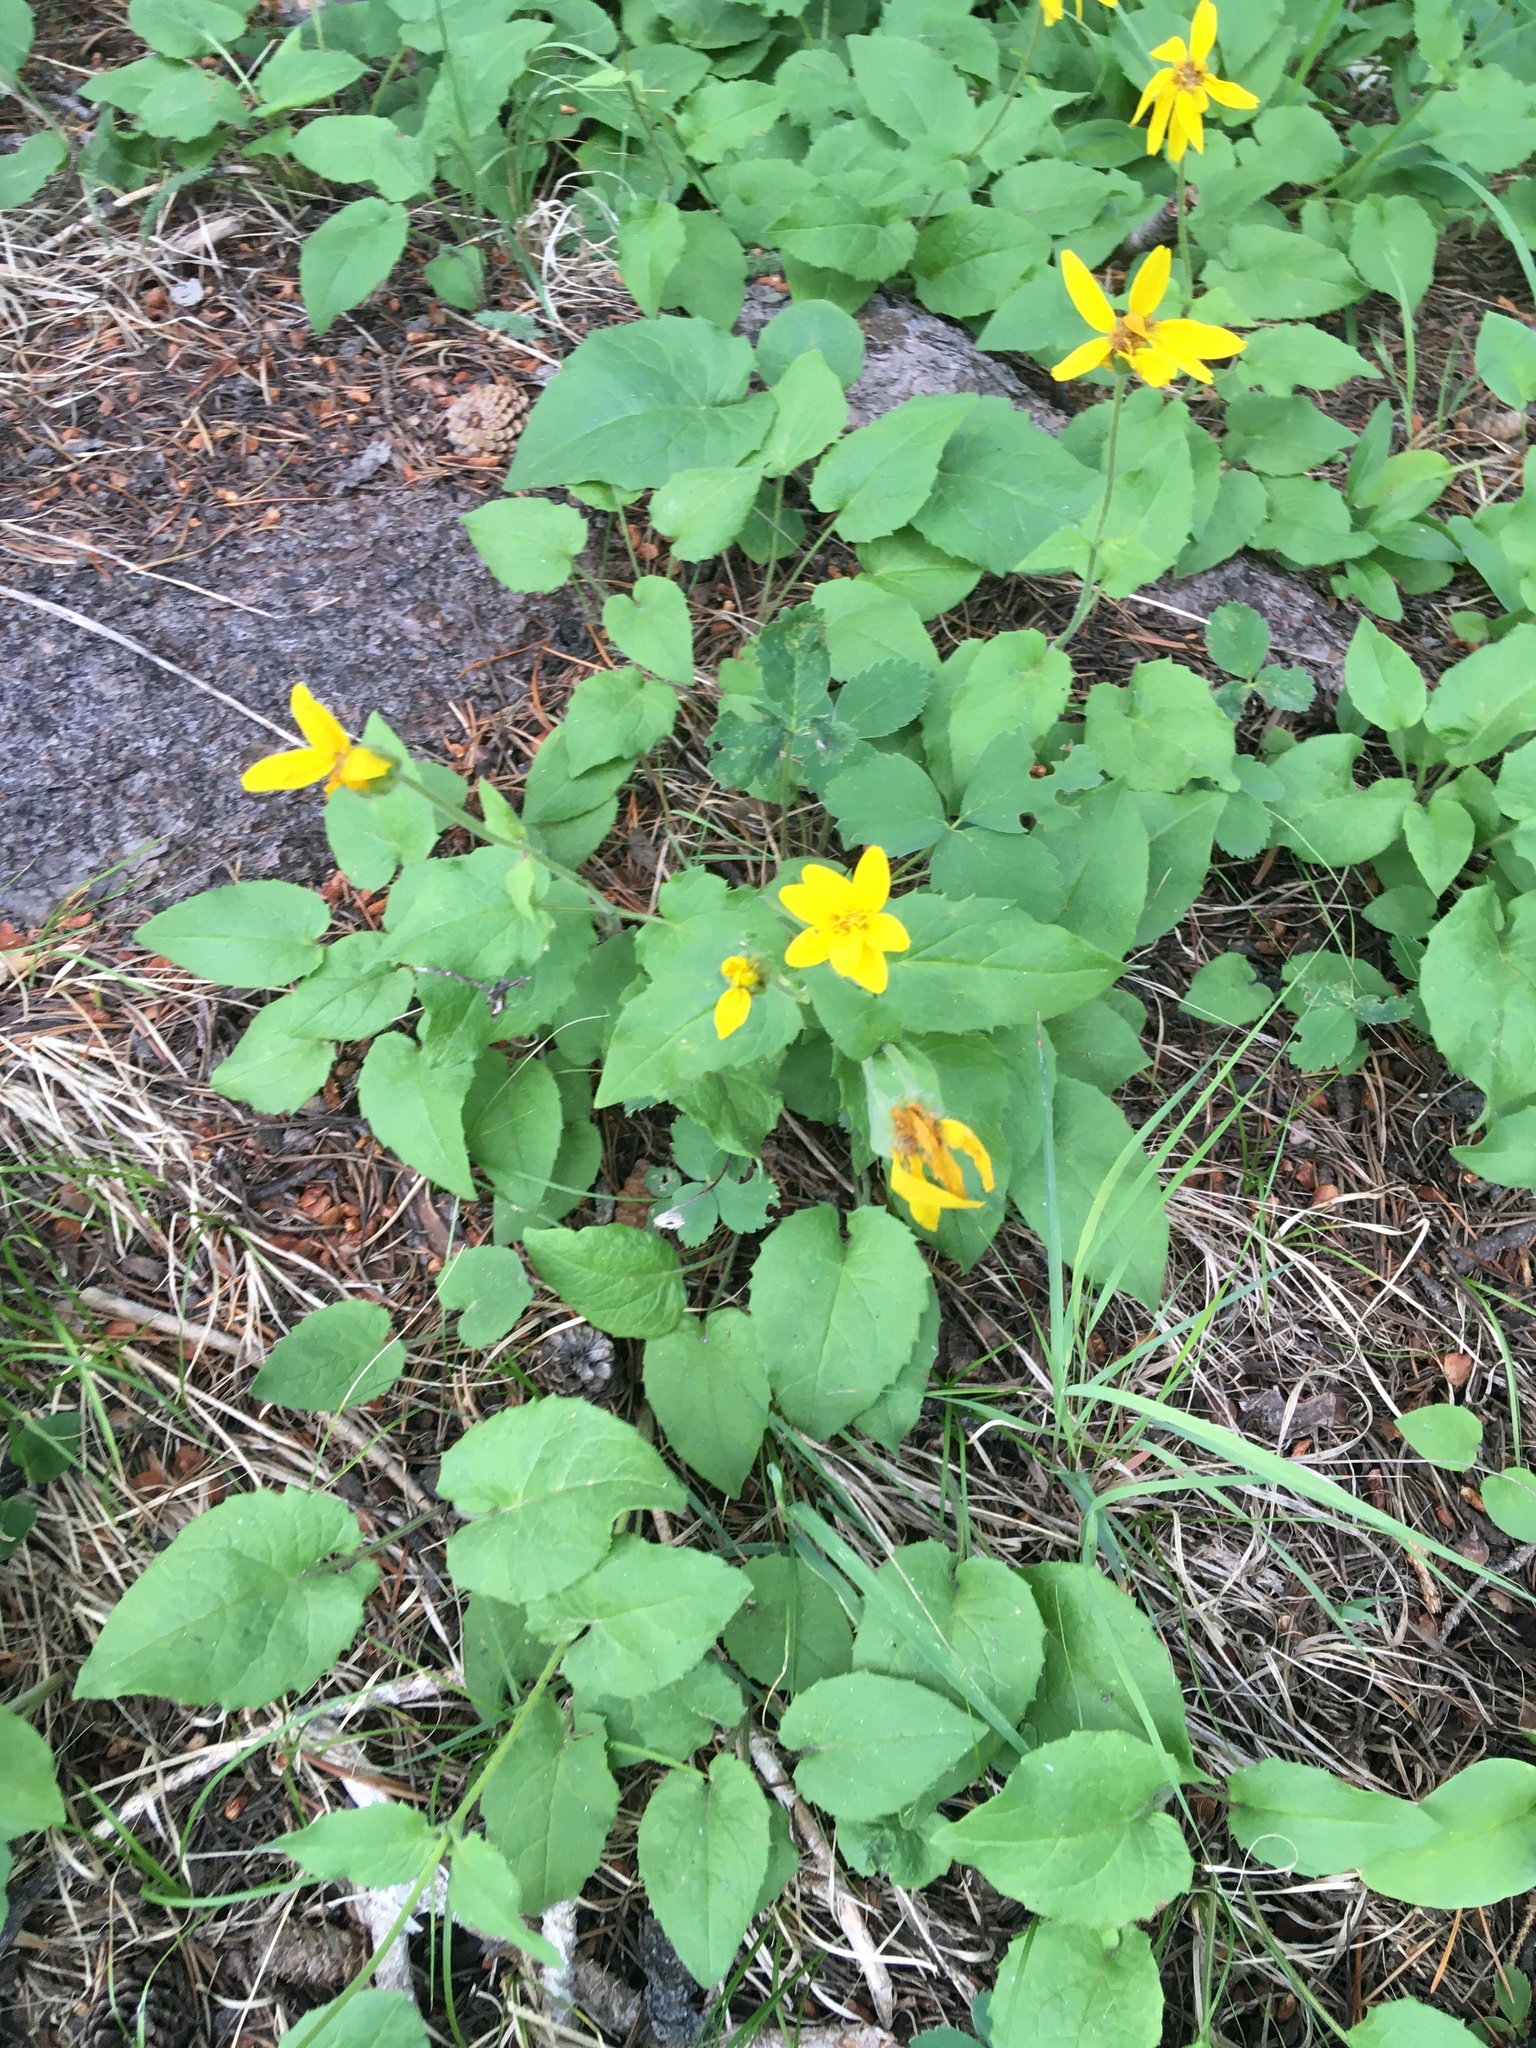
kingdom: Plantae
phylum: Tracheophyta
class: Magnoliopsida
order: Asterales
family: Asteraceae
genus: Arnica
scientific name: Arnica cordifolia
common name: Heart-leaf arnica
